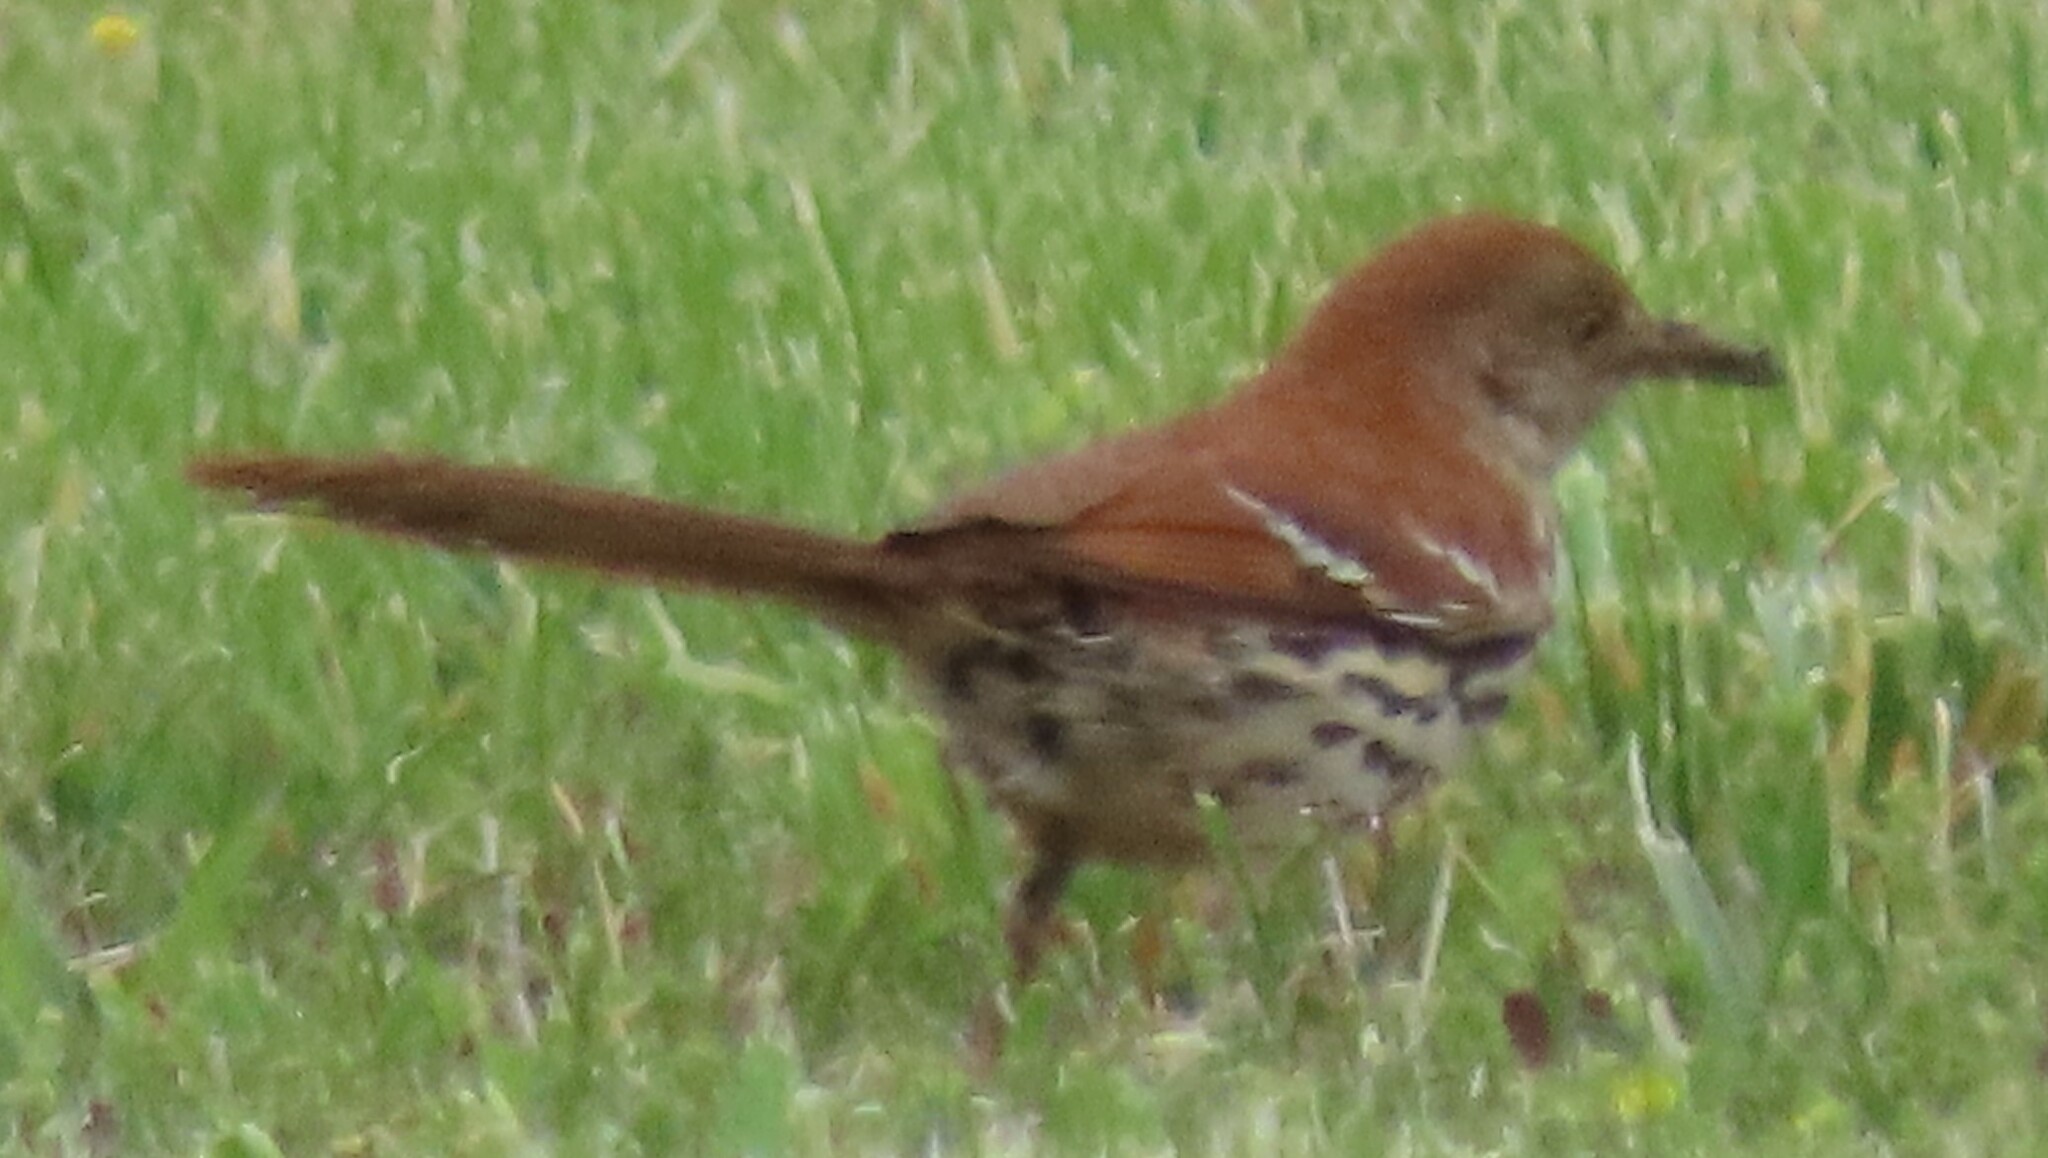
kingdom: Animalia
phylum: Chordata
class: Aves
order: Passeriformes
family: Mimidae
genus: Toxostoma
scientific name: Toxostoma rufum
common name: Brown thrasher
